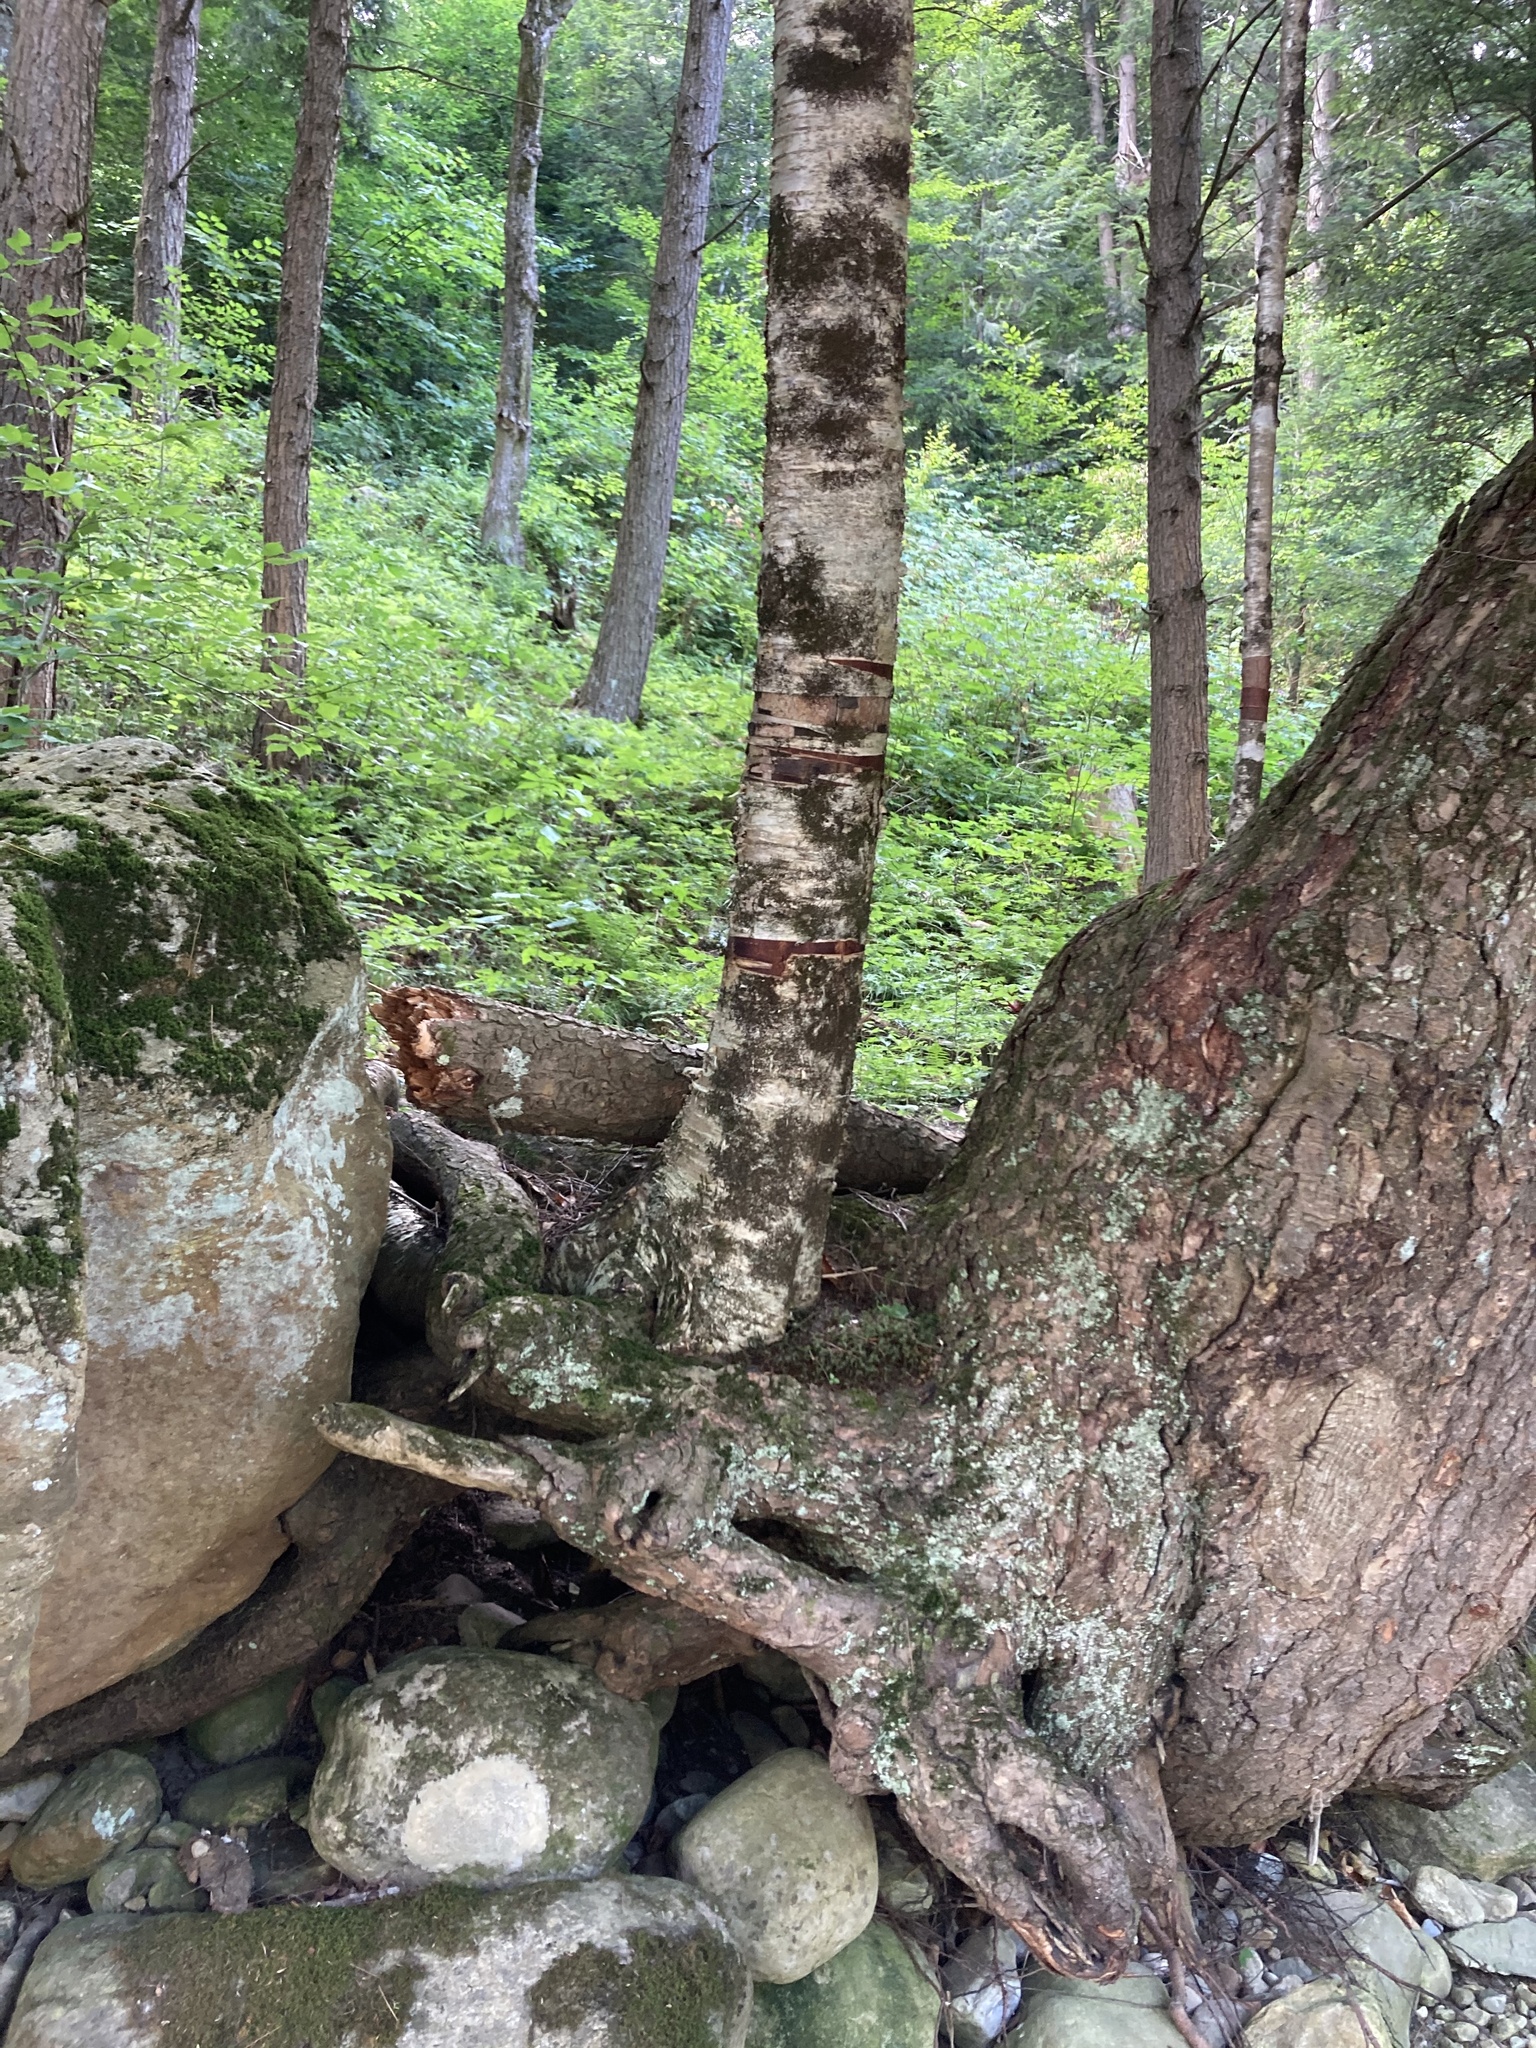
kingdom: Plantae
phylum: Tracheophyta
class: Magnoliopsida
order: Fagales
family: Betulaceae
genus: Betula
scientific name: Betula alleghaniensis
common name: Yellow birch
